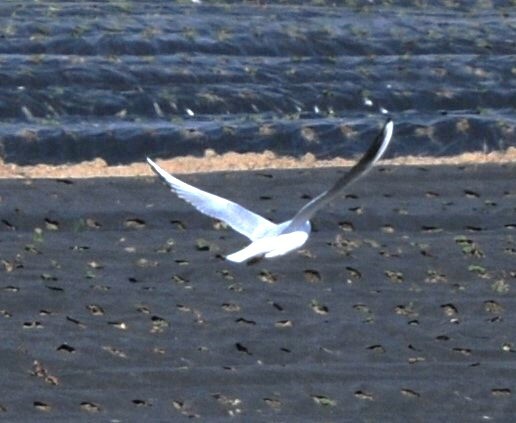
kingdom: Animalia
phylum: Chordata
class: Aves
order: Charadriiformes
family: Laridae
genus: Chroicocephalus
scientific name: Chroicocephalus ridibundus
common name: Black-headed gull
